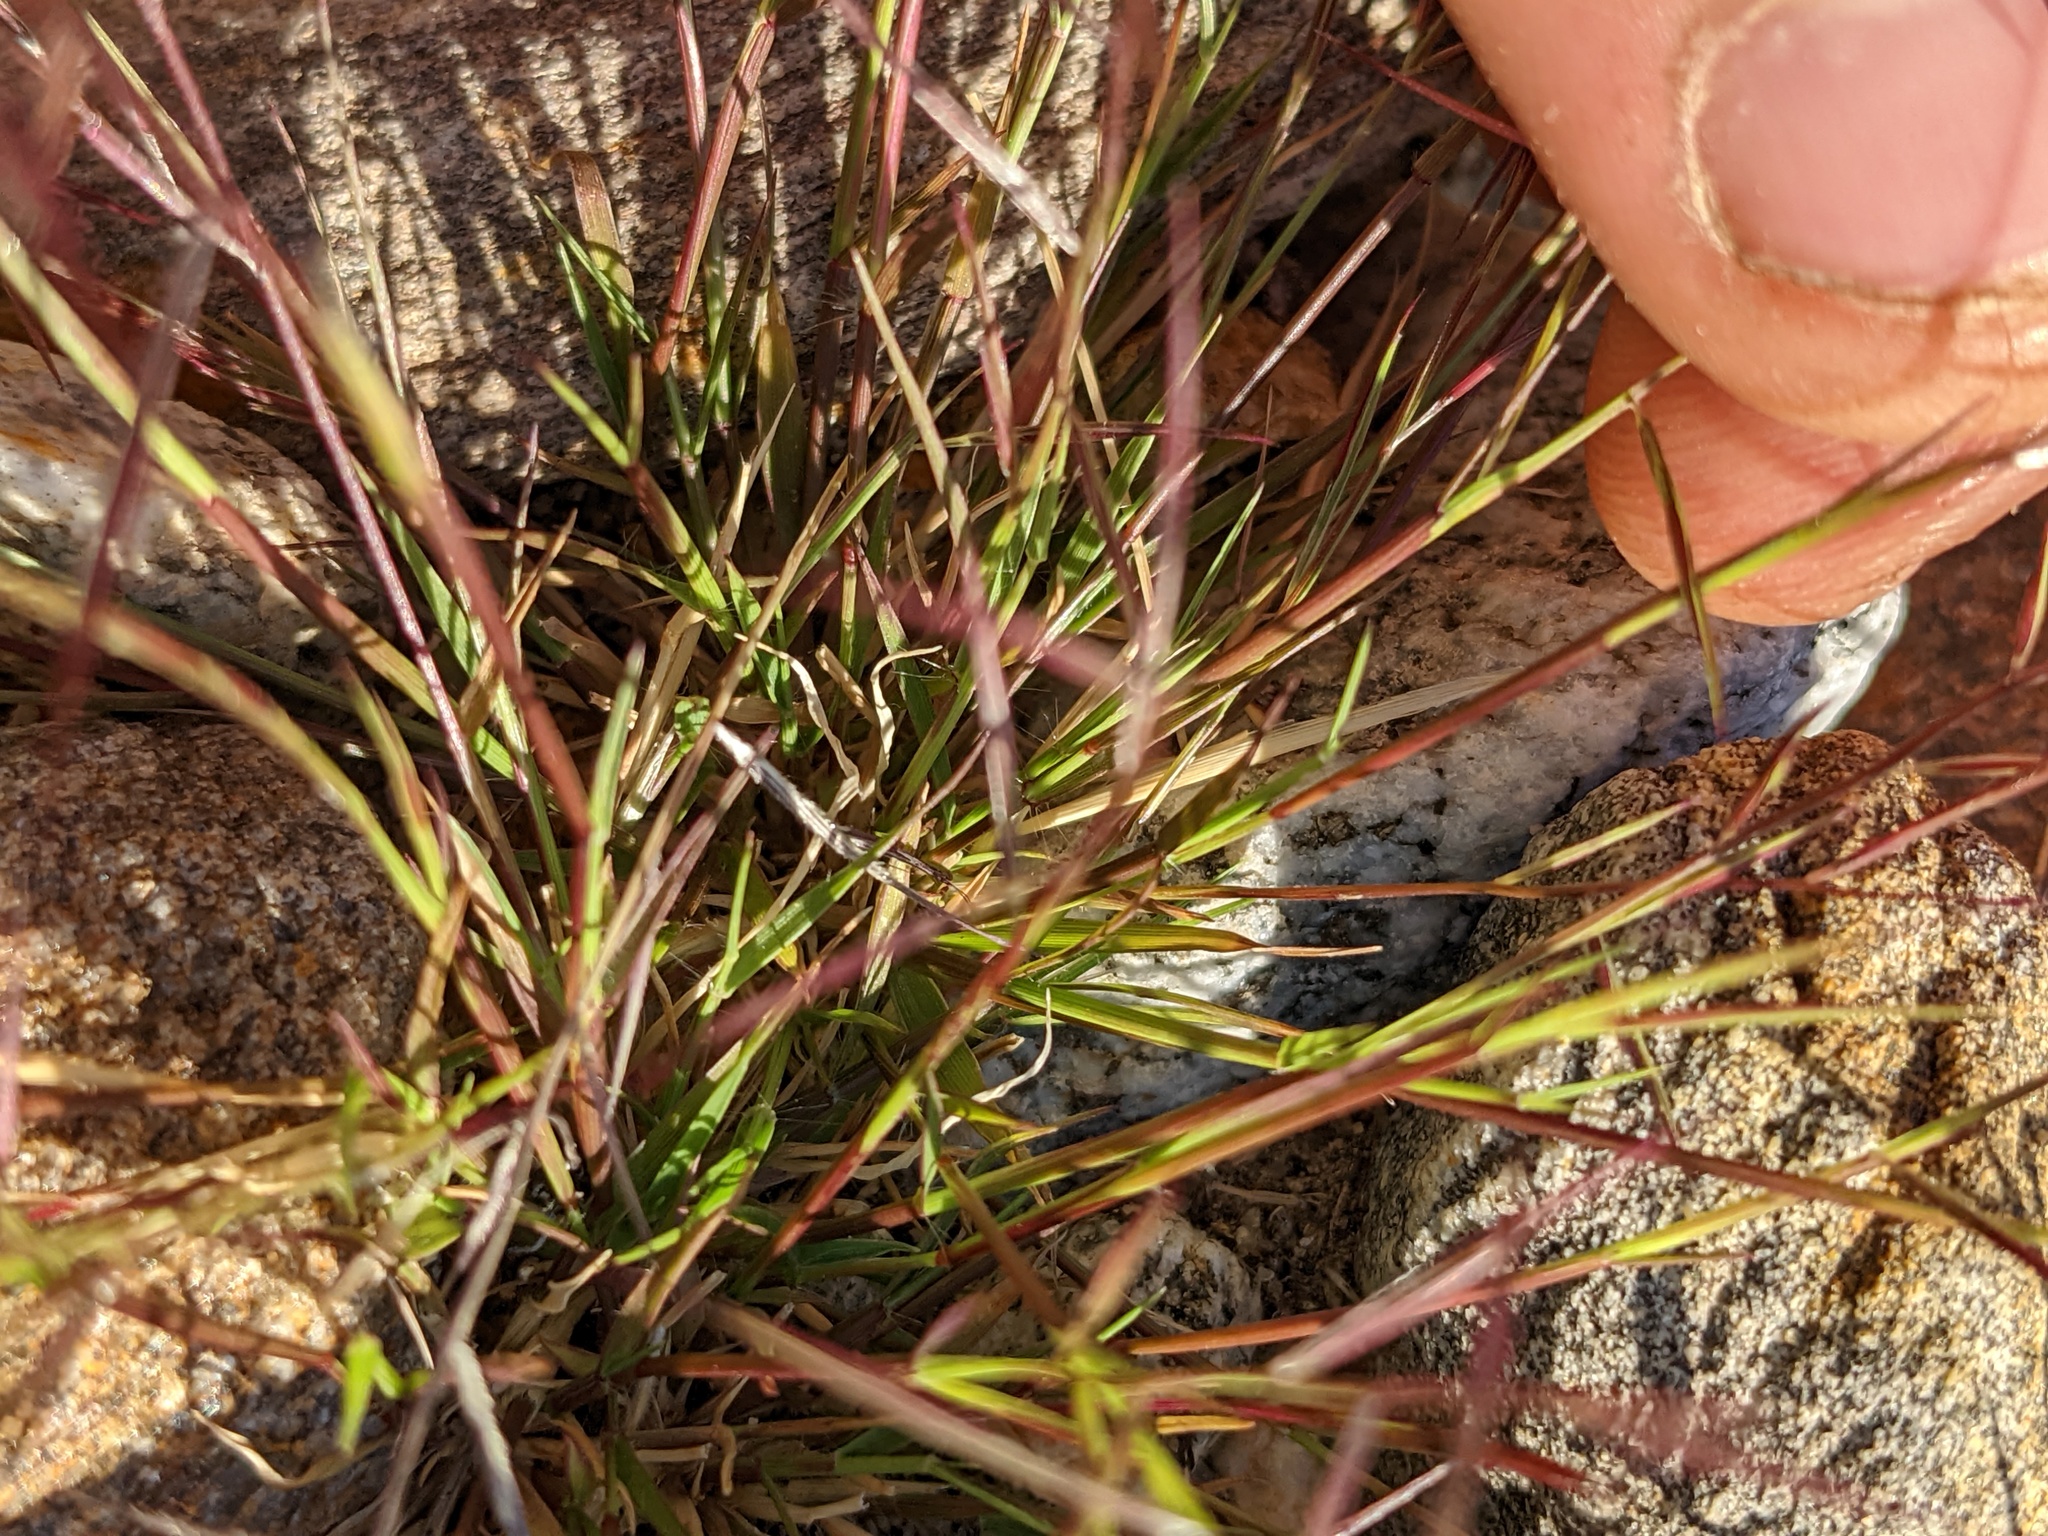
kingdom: Plantae
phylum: Tracheophyta
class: Liliopsida
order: Poales
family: Poaceae
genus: Bouteloua
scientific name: Bouteloua aristidoides
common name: Needle grama
